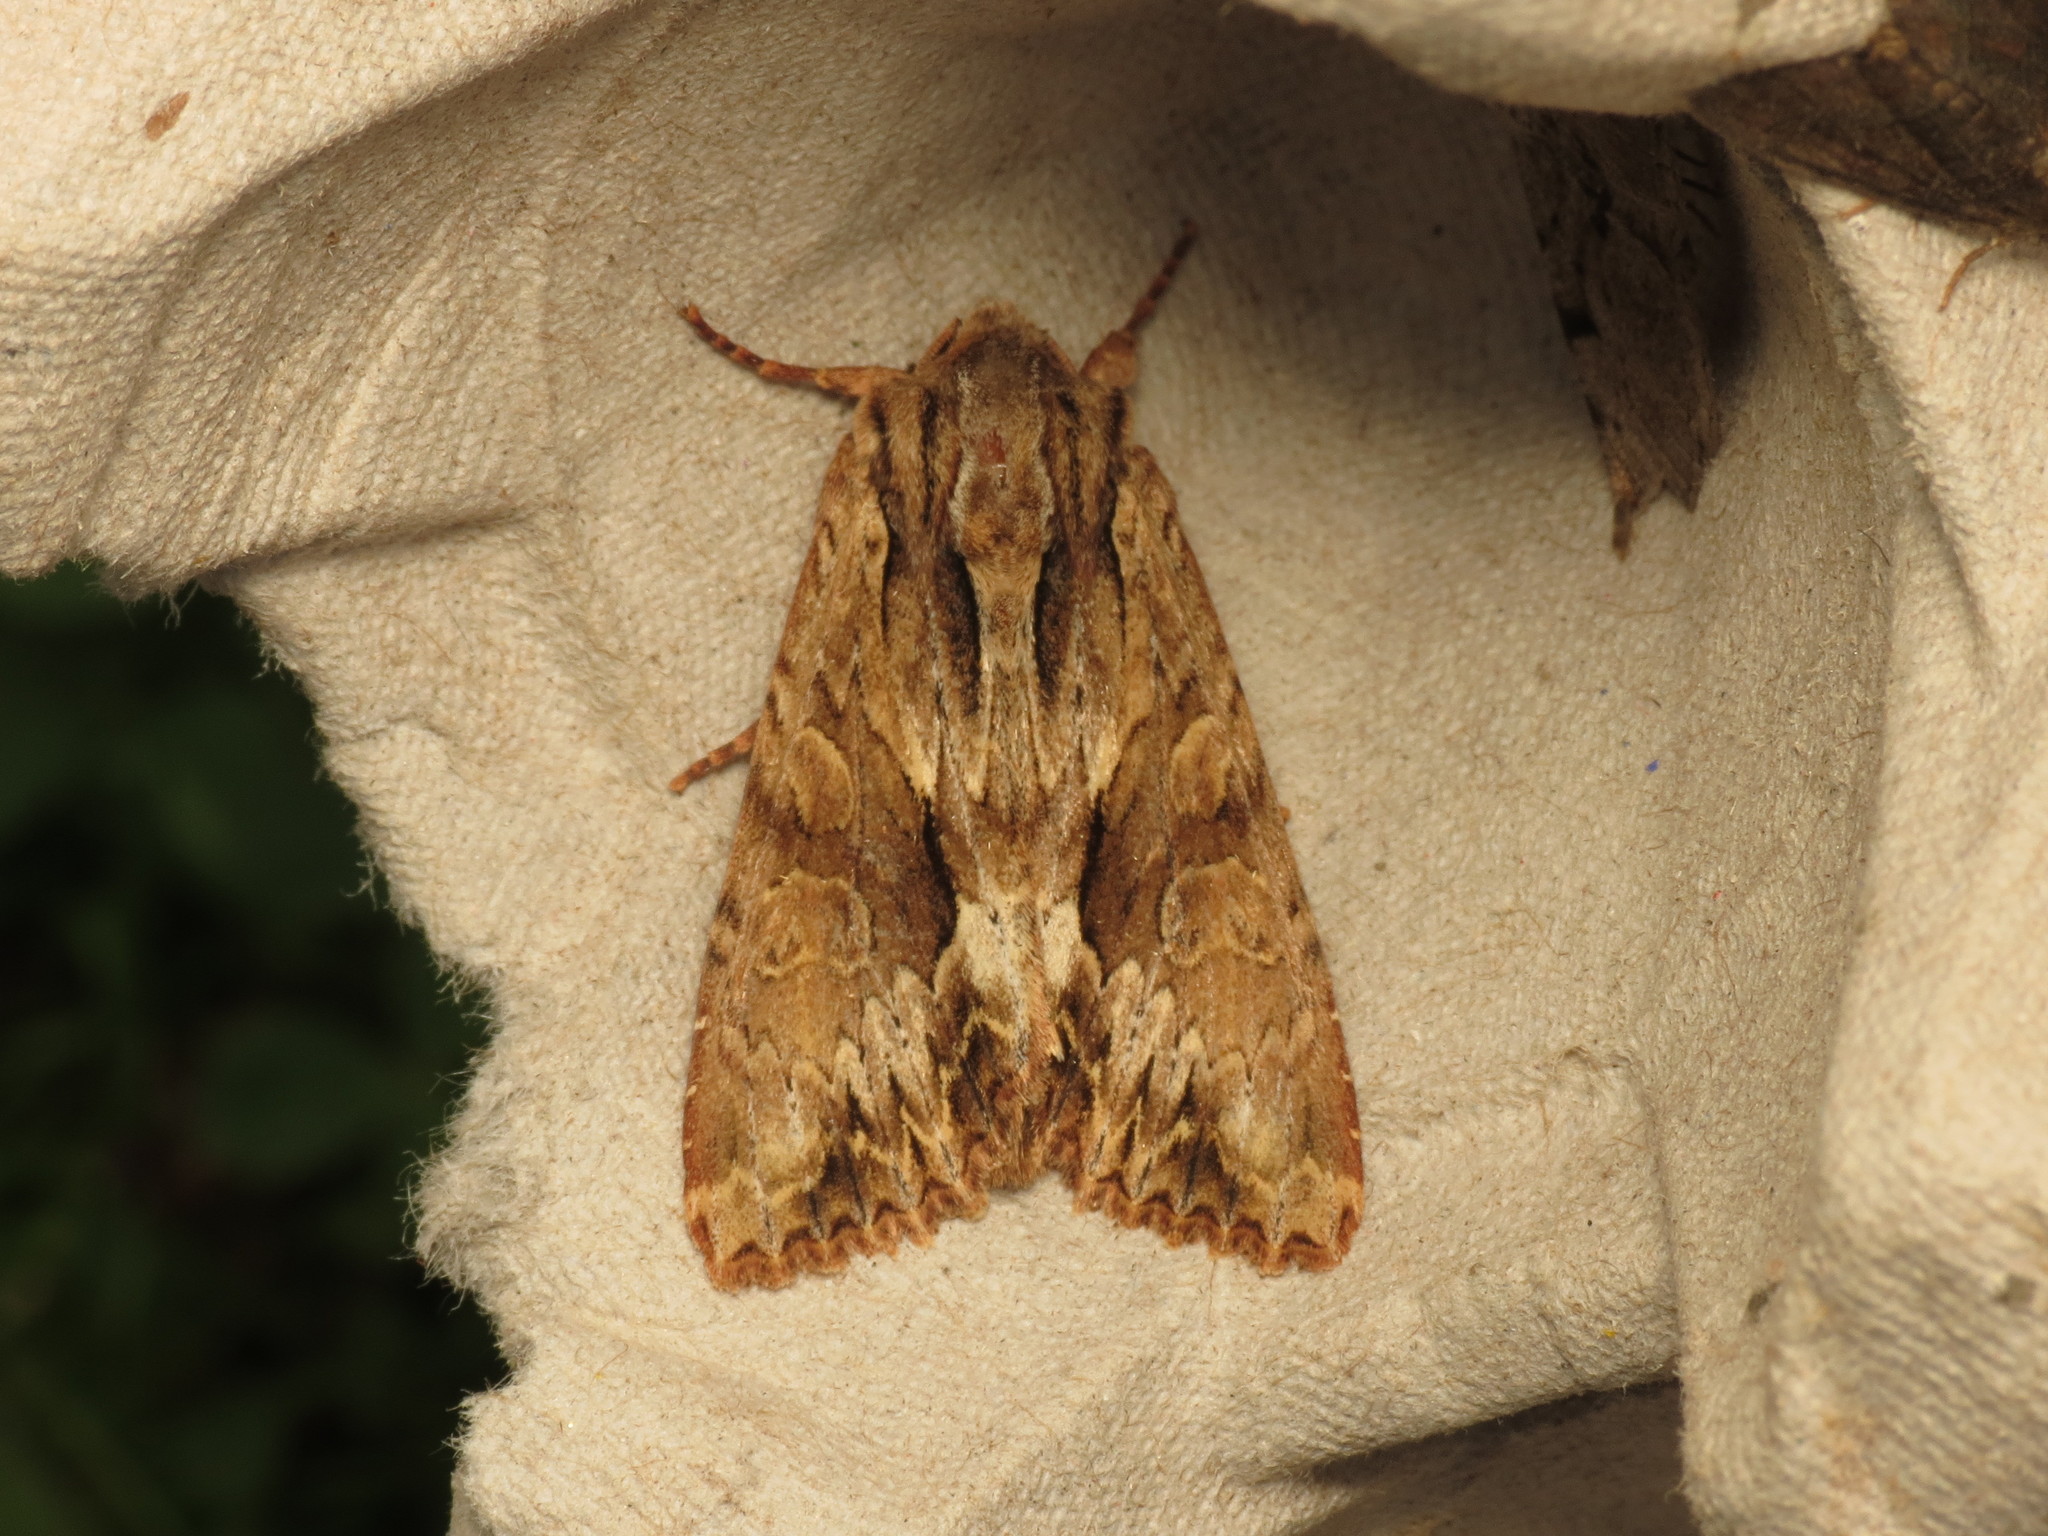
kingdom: Animalia
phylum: Arthropoda
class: Insecta
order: Lepidoptera
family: Noctuidae
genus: Apamea
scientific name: Apamea monoglypha
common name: Dark arches
